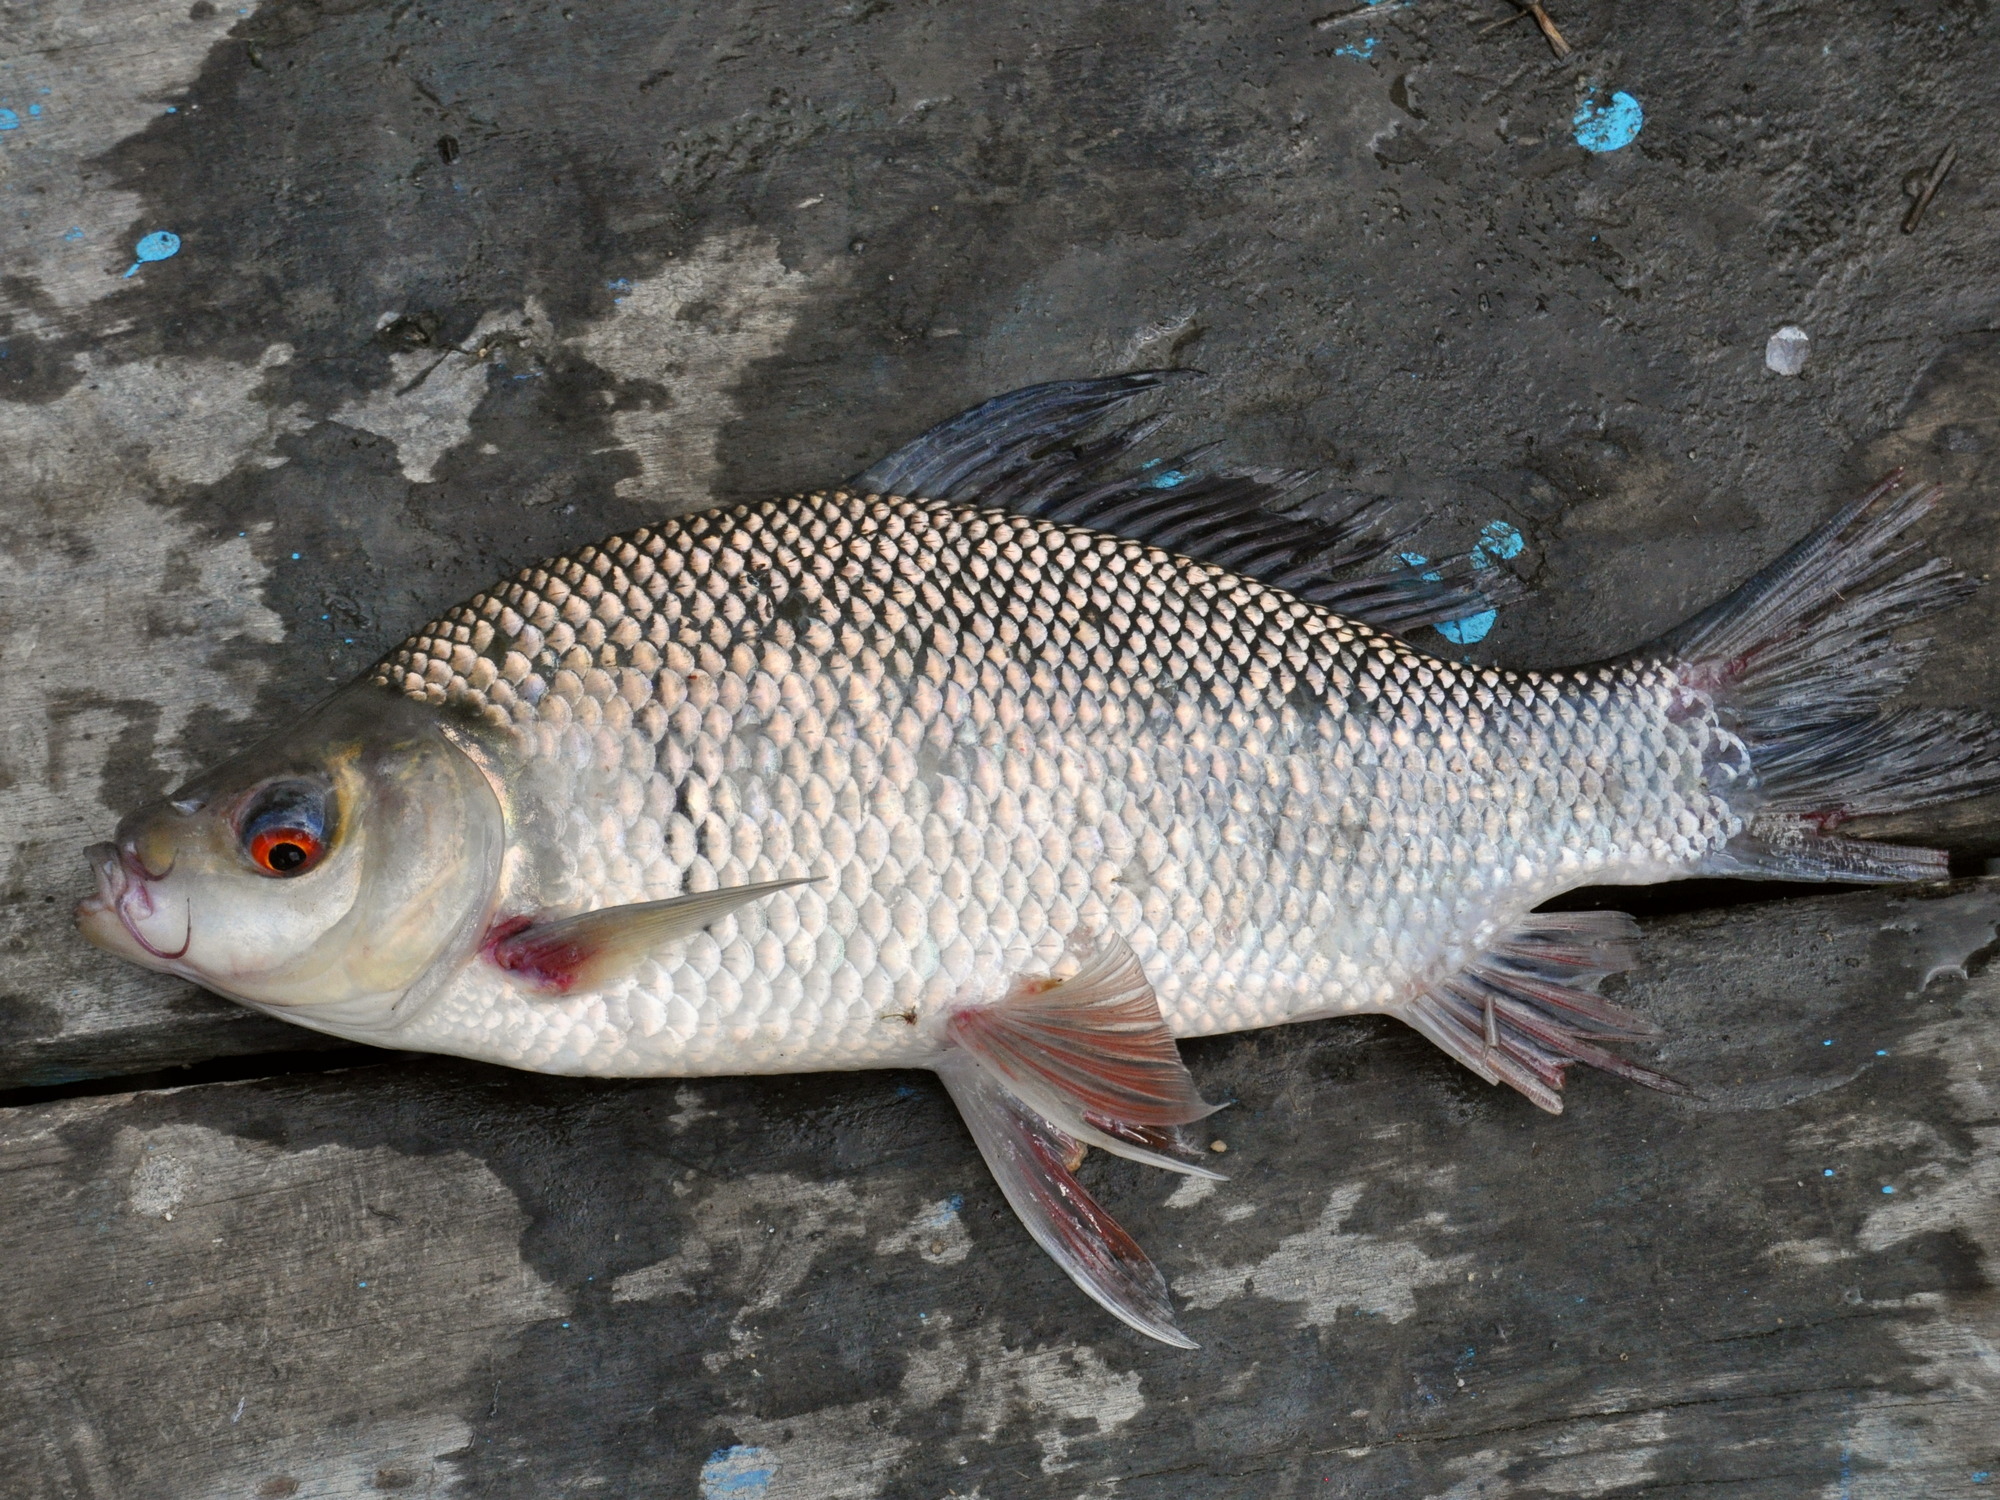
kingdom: Animalia
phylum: Chordata
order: Cypriniformes
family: Cyprinidae
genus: Osteochilus
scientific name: Osteochilus melanopleurus
